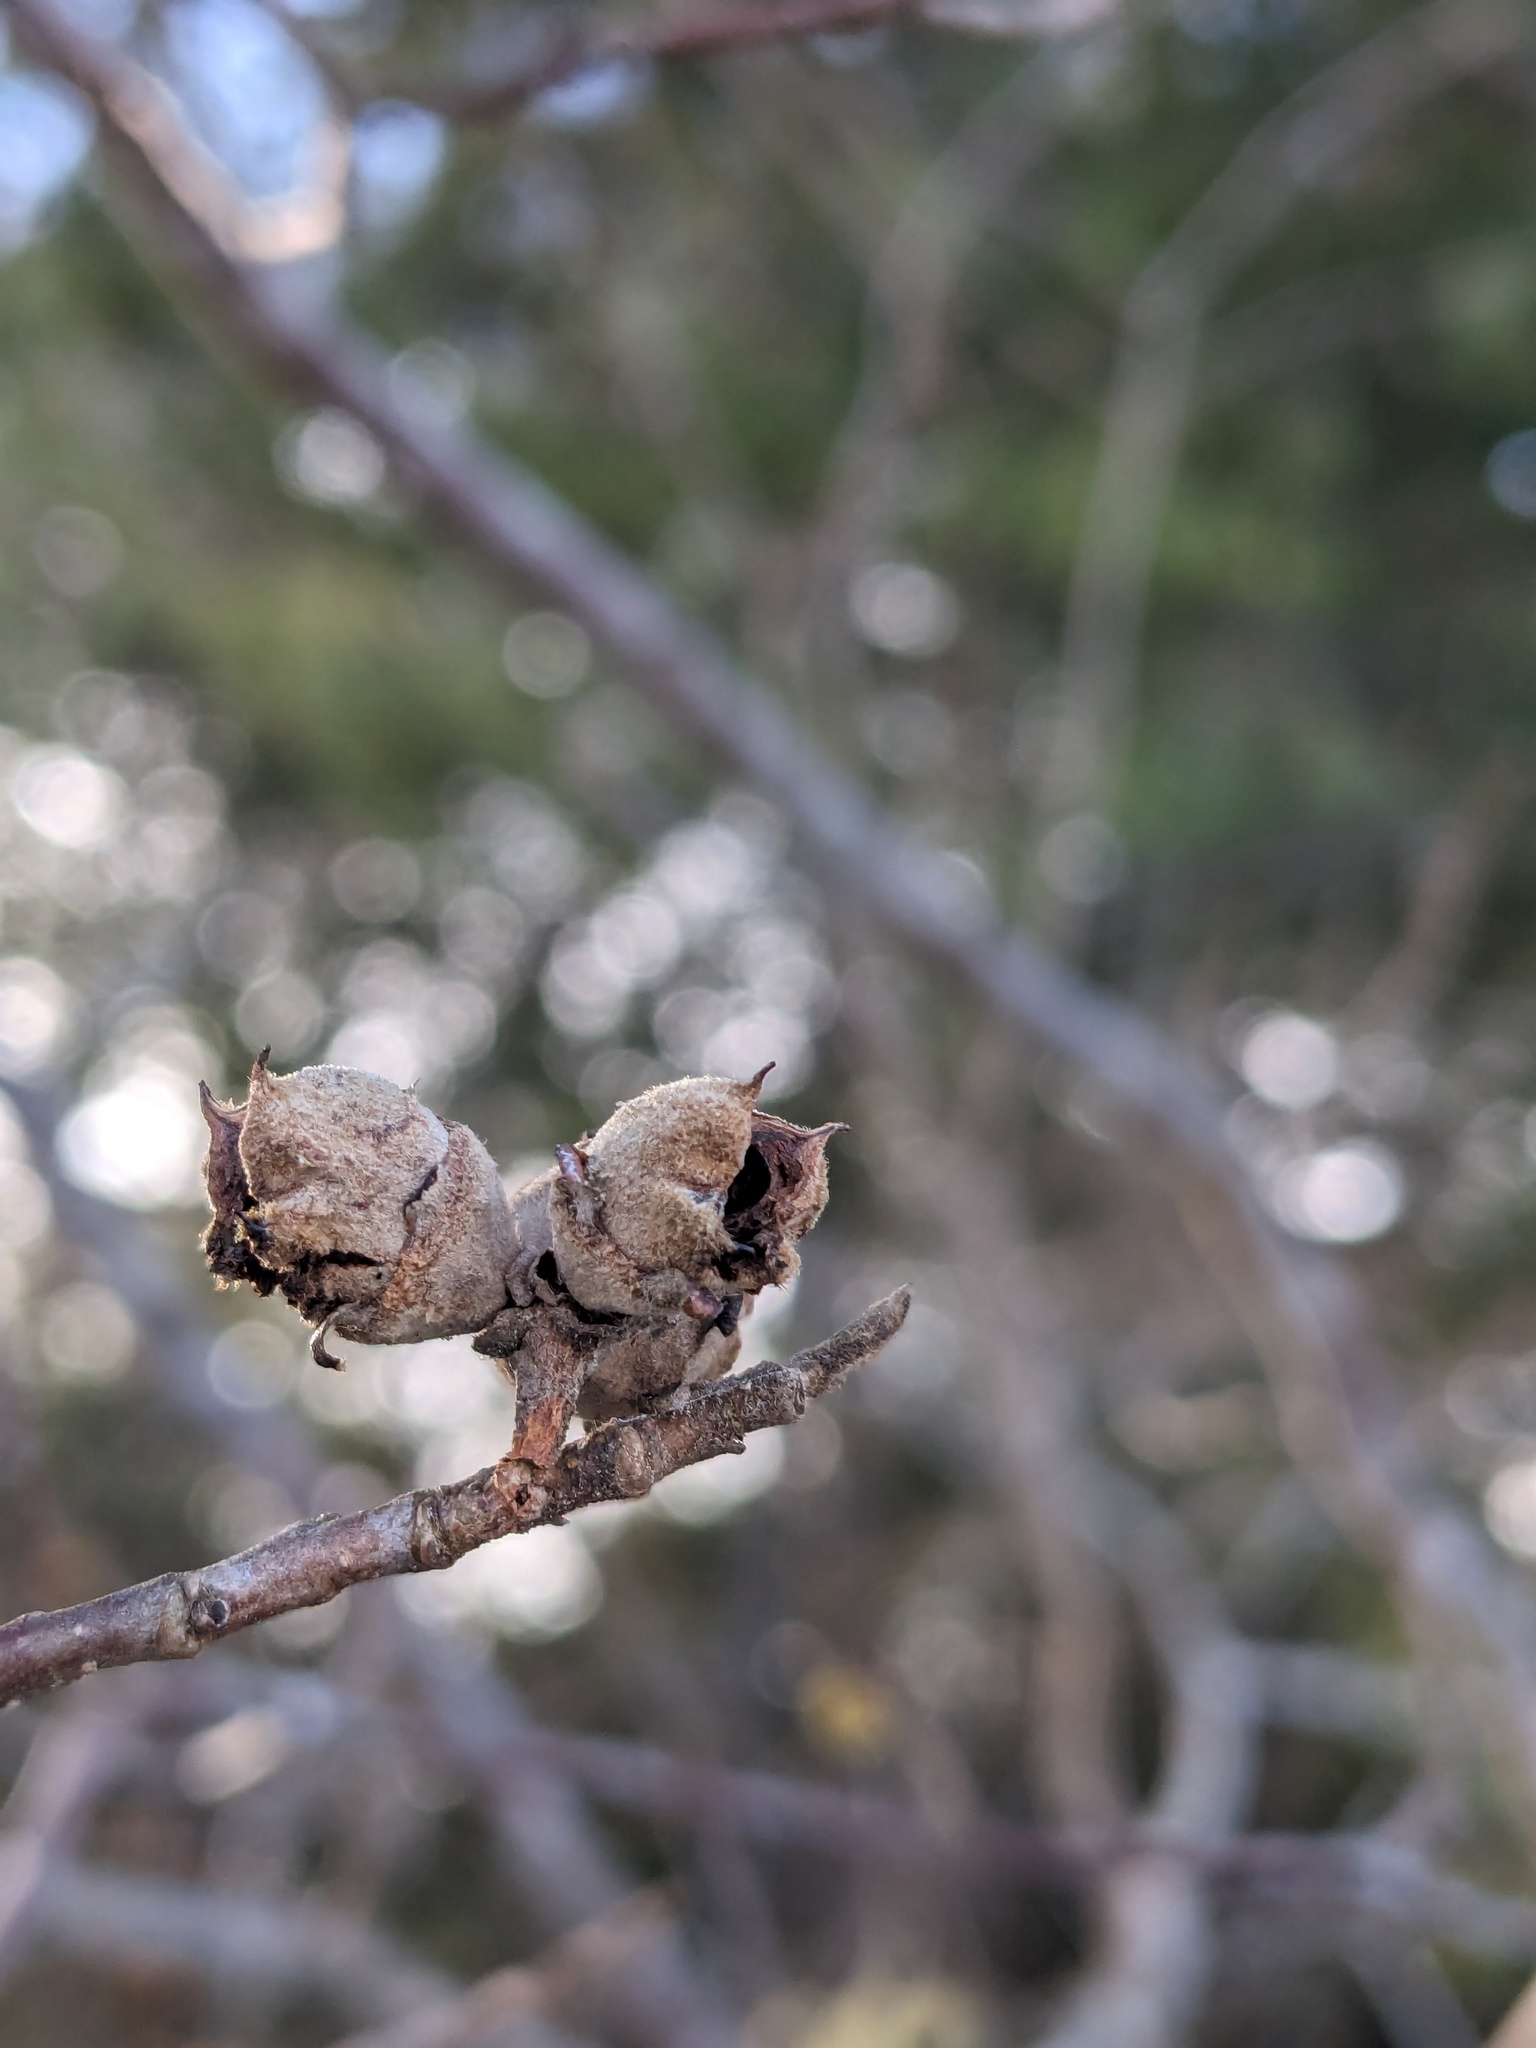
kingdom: Plantae
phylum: Tracheophyta
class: Magnoliopsida
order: Saxifragales
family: Hamamelidaceae
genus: Hamamelis
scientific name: Hamamelis virginiana
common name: Witch-hazel
